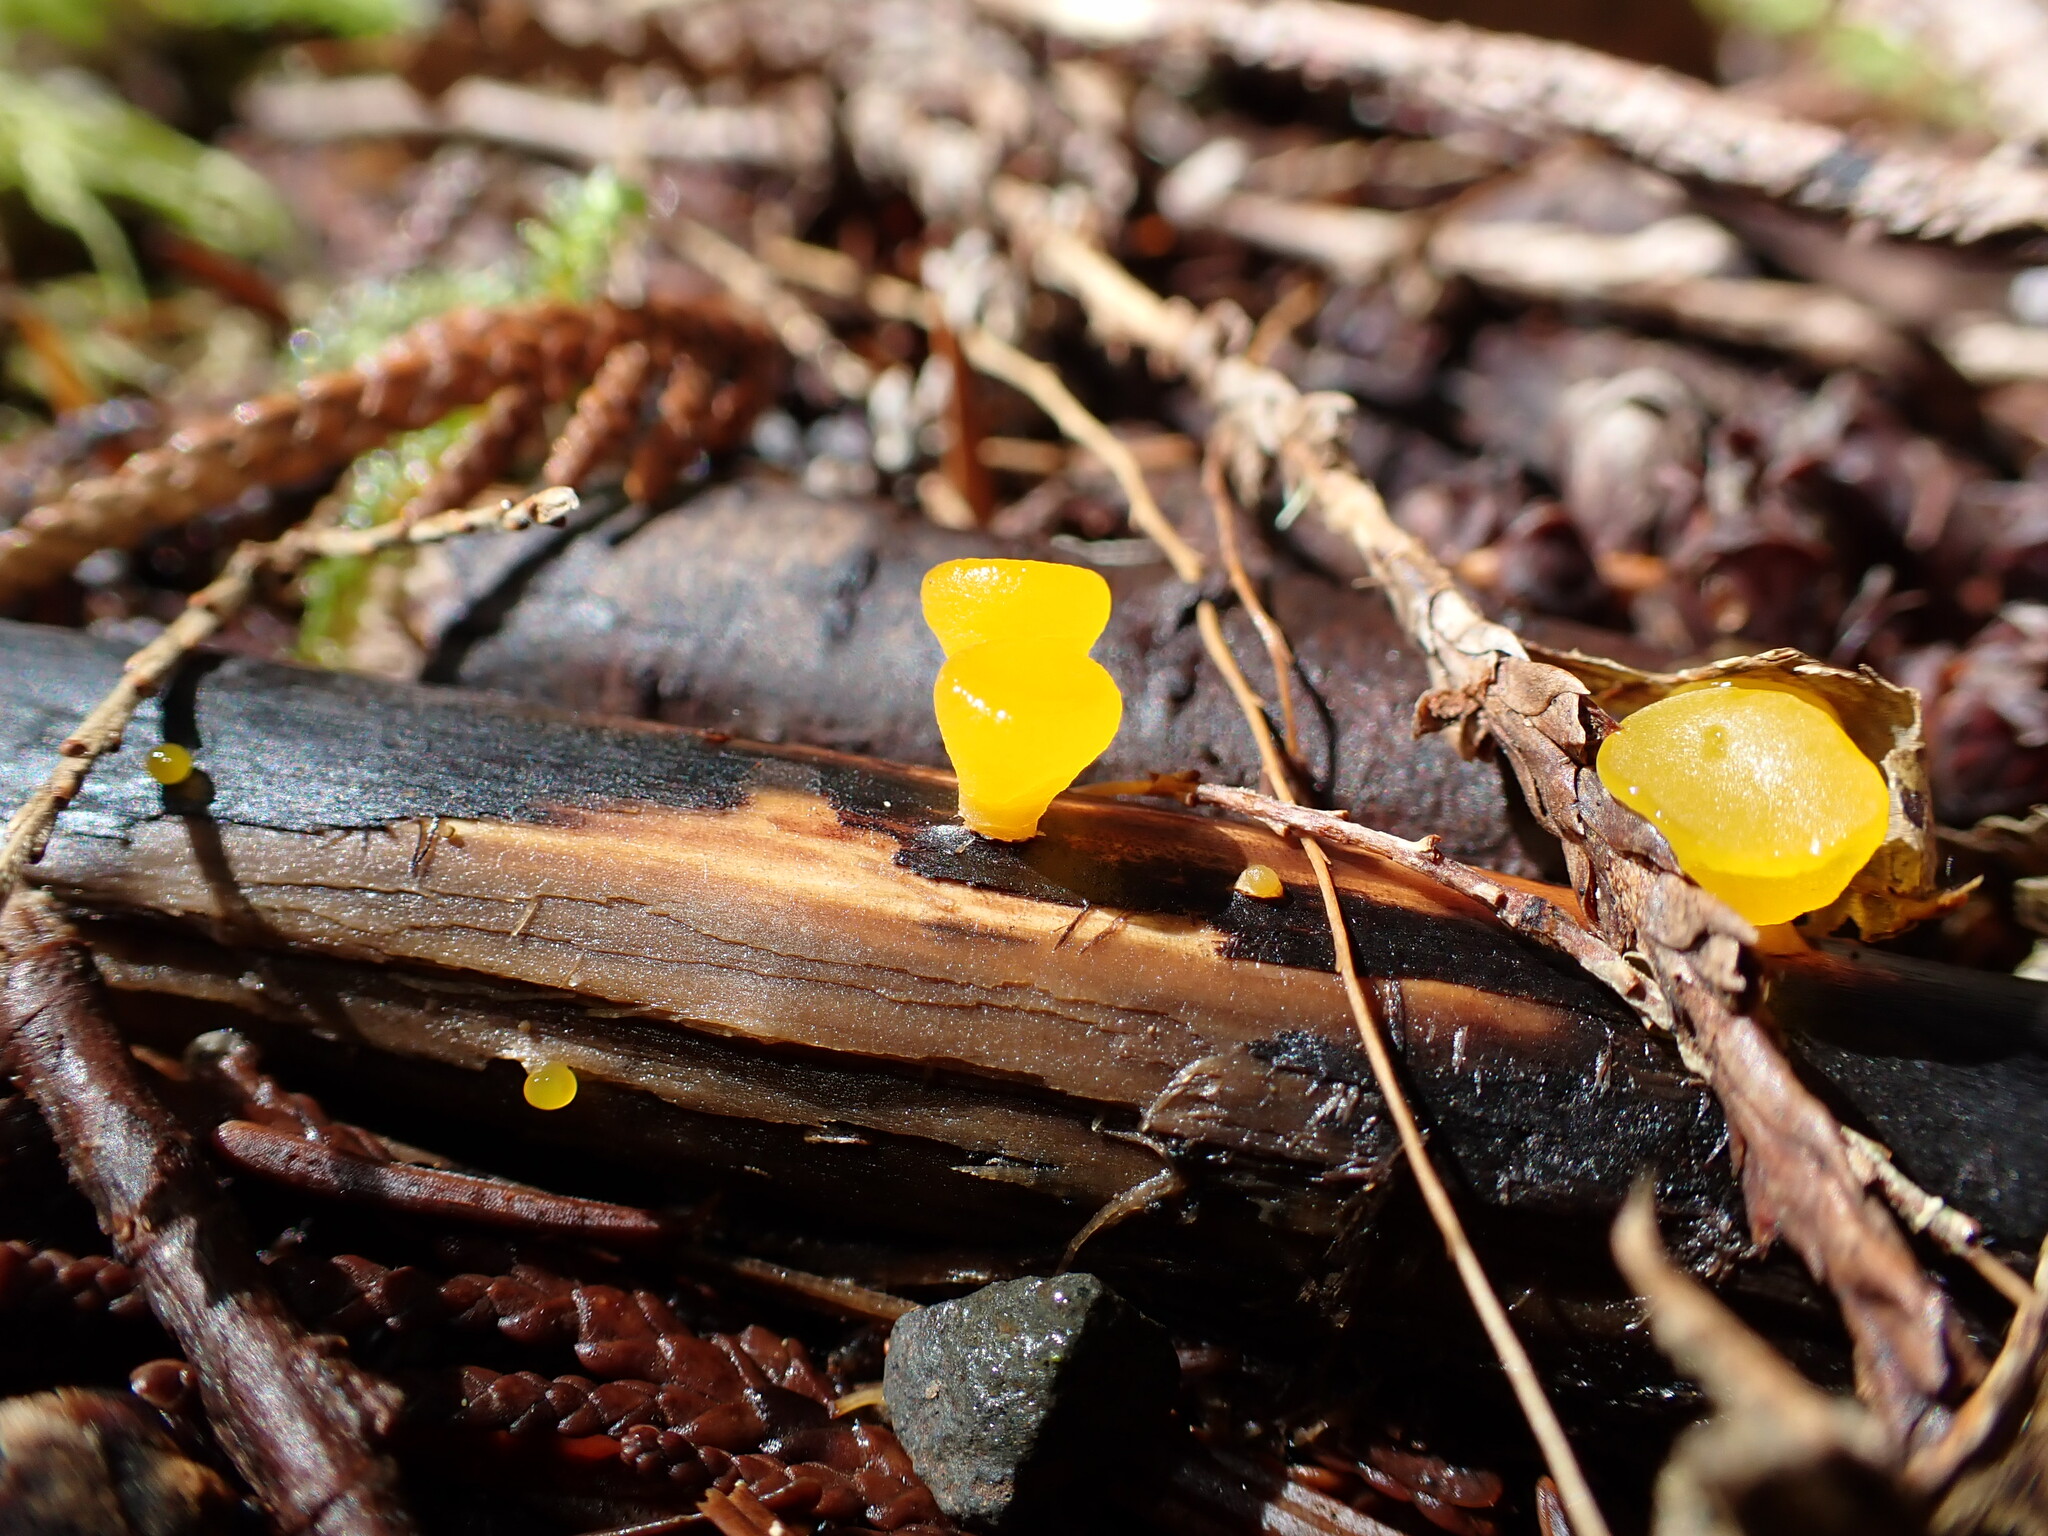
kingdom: Fungi
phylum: Basidiomycota
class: Dacrymycetes
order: Dacrymycetales
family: Dacrymycetaceae
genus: Guepiniopsis
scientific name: Guepiniopsis alpina
